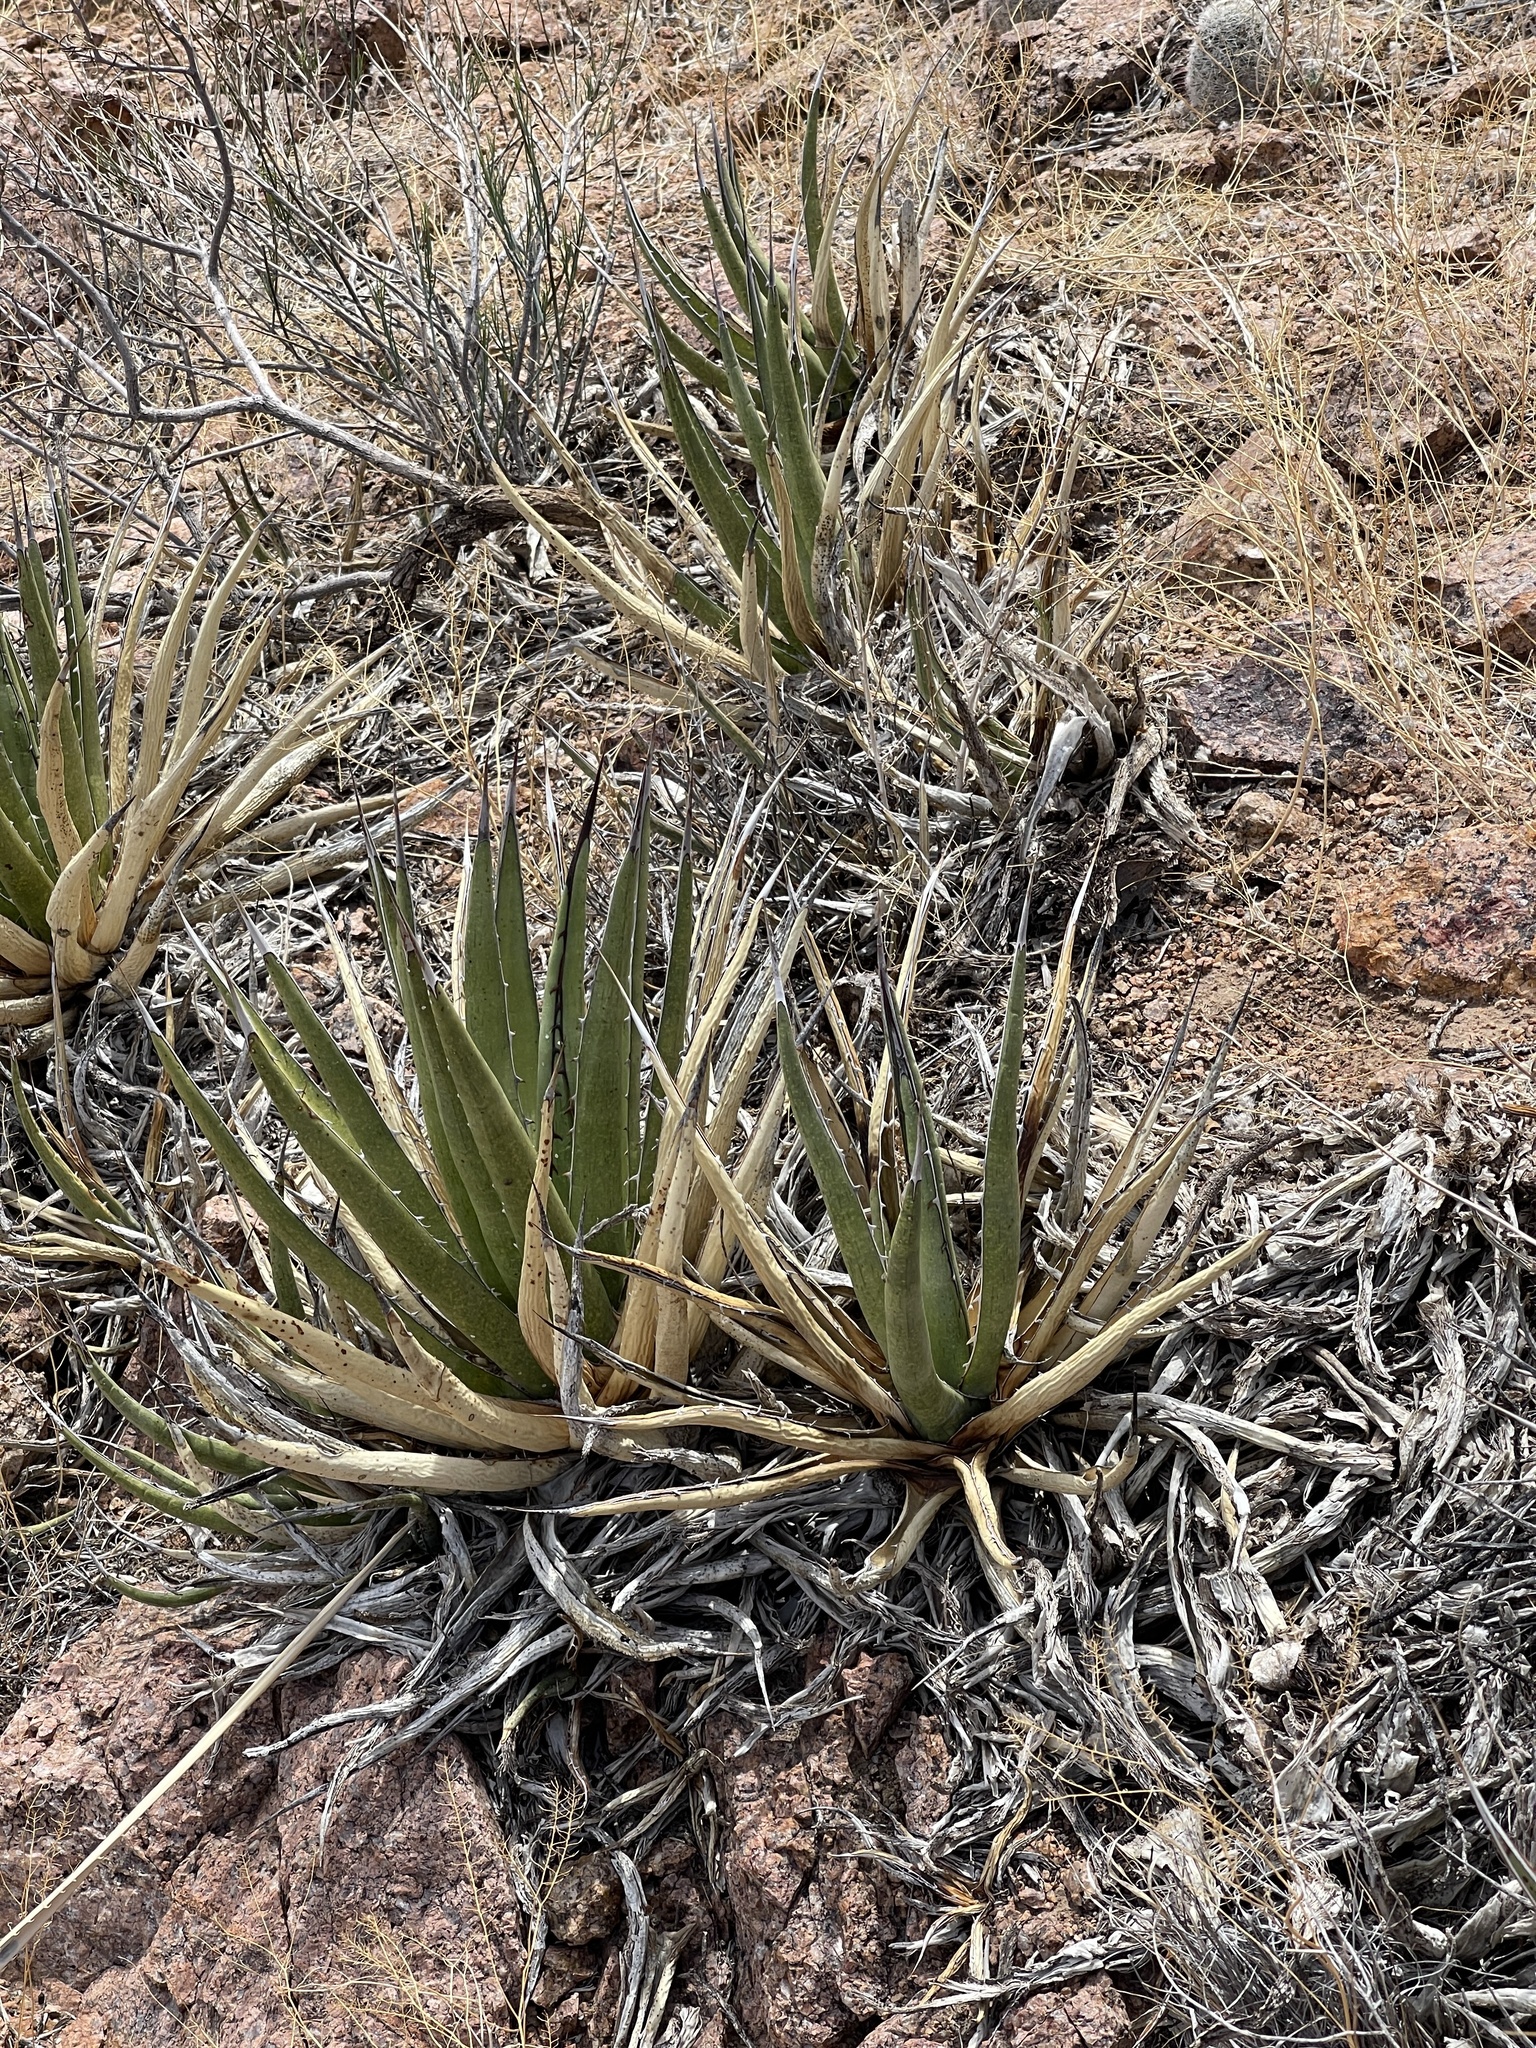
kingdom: Plantae
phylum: Tracheophyta
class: Liliopsida
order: Asparagales
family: Asparagaceae
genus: Agave
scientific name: Agave lechuguilla
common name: Lecheguilla agave
